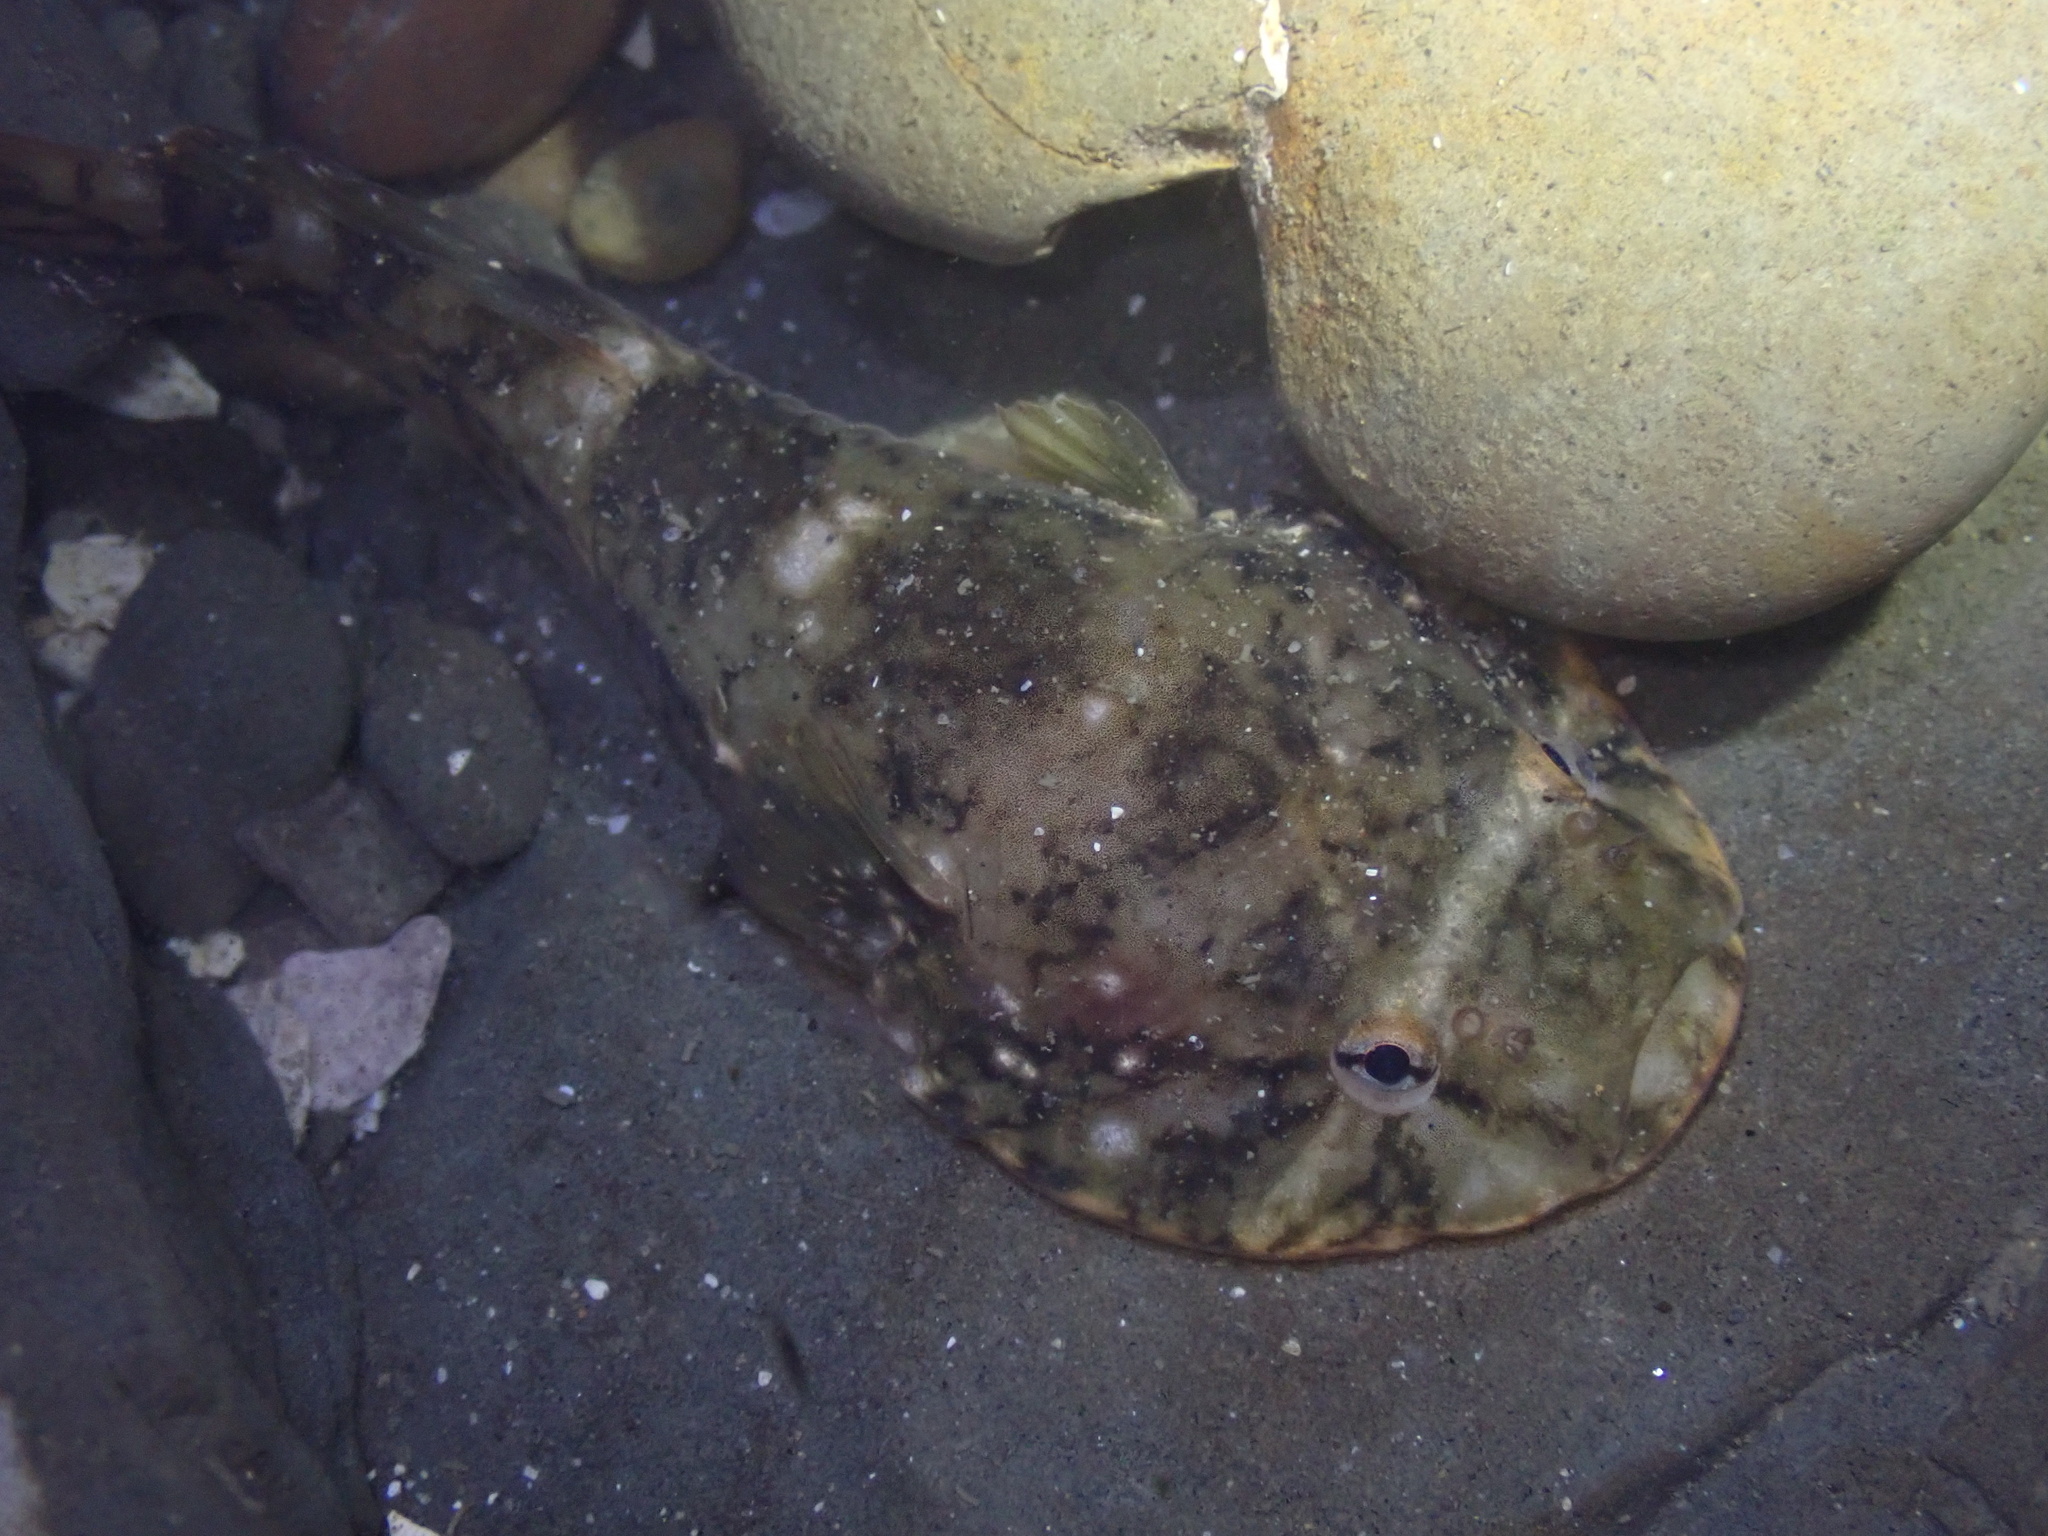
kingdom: Animalia
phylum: Chordata
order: Gobiesociformes
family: Gobiesocidae
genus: Gobiesox
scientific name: Gobiesox maeandricus
